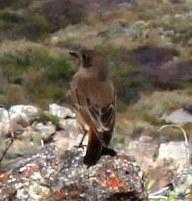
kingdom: Animalia
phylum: Chordata
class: Aves
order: Passeriformes
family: Muscicapidae
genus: Oenanthe
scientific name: Oenanthe familiaris
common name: Familiar chat
